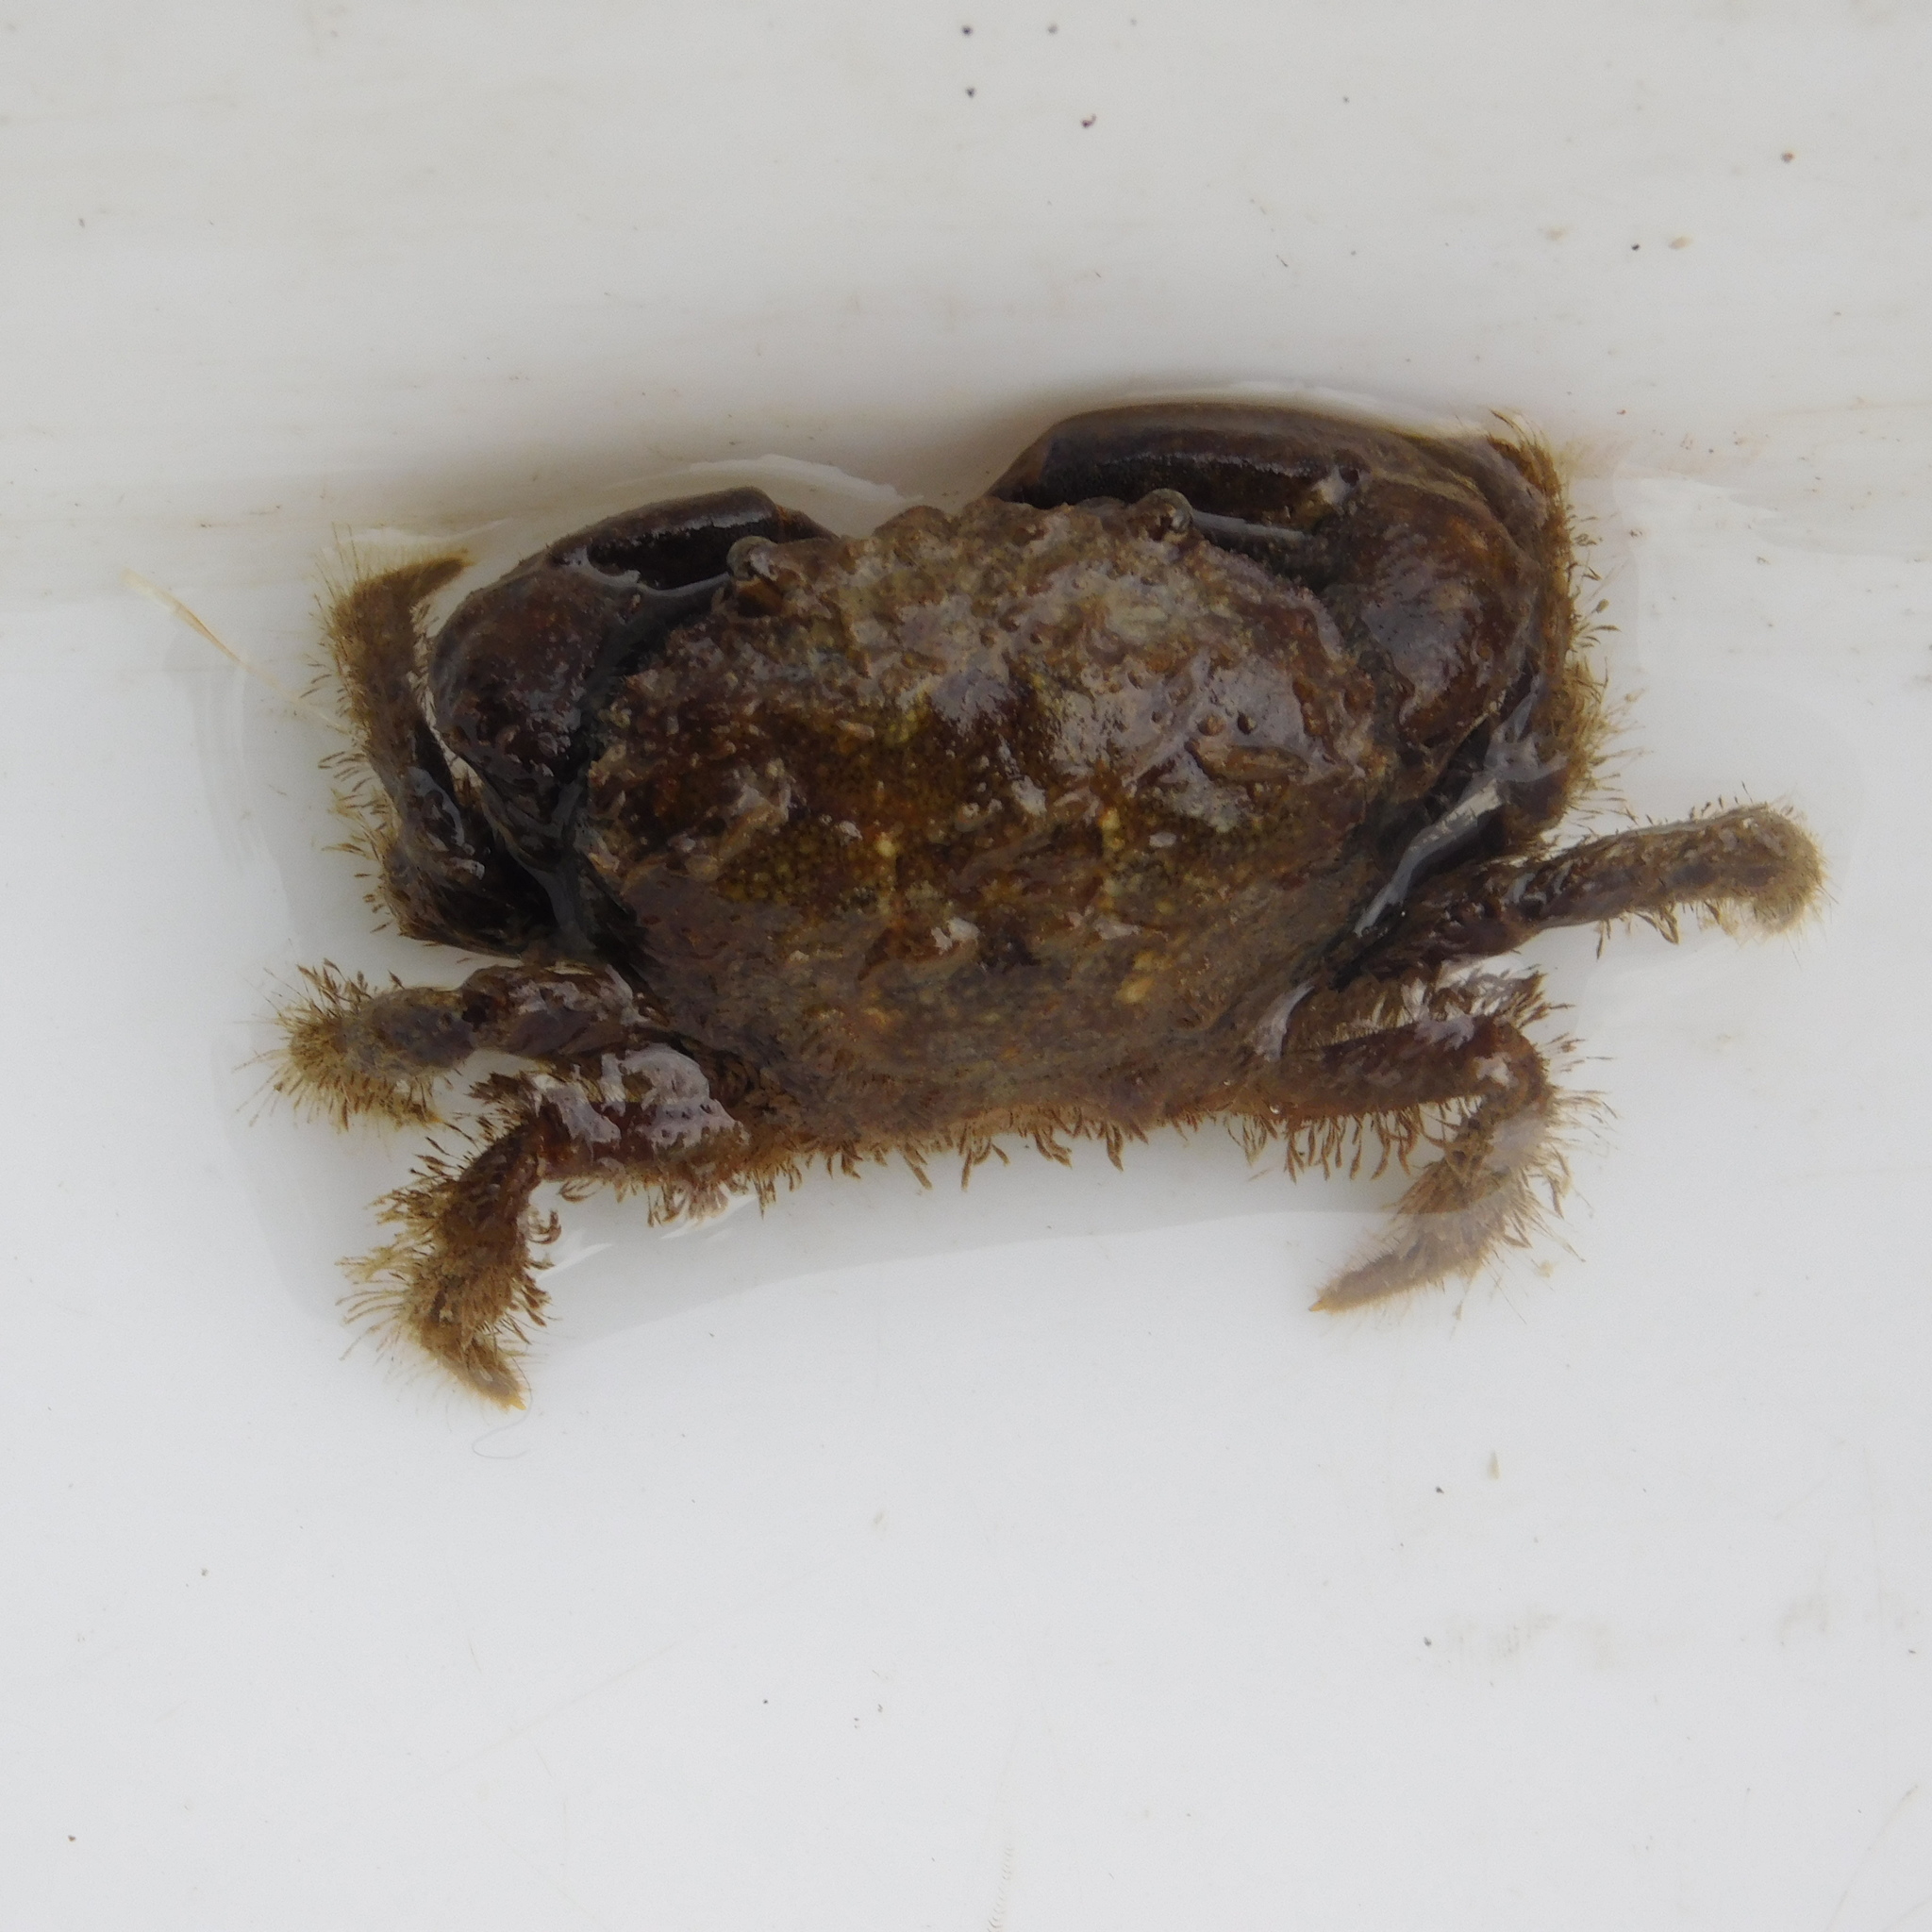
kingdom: Animalia
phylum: Arthropoda
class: Malacostraca
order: Decapoda
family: Pilumnidae
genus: Pilumnopeus
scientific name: Pilumnopeus serratifrons
